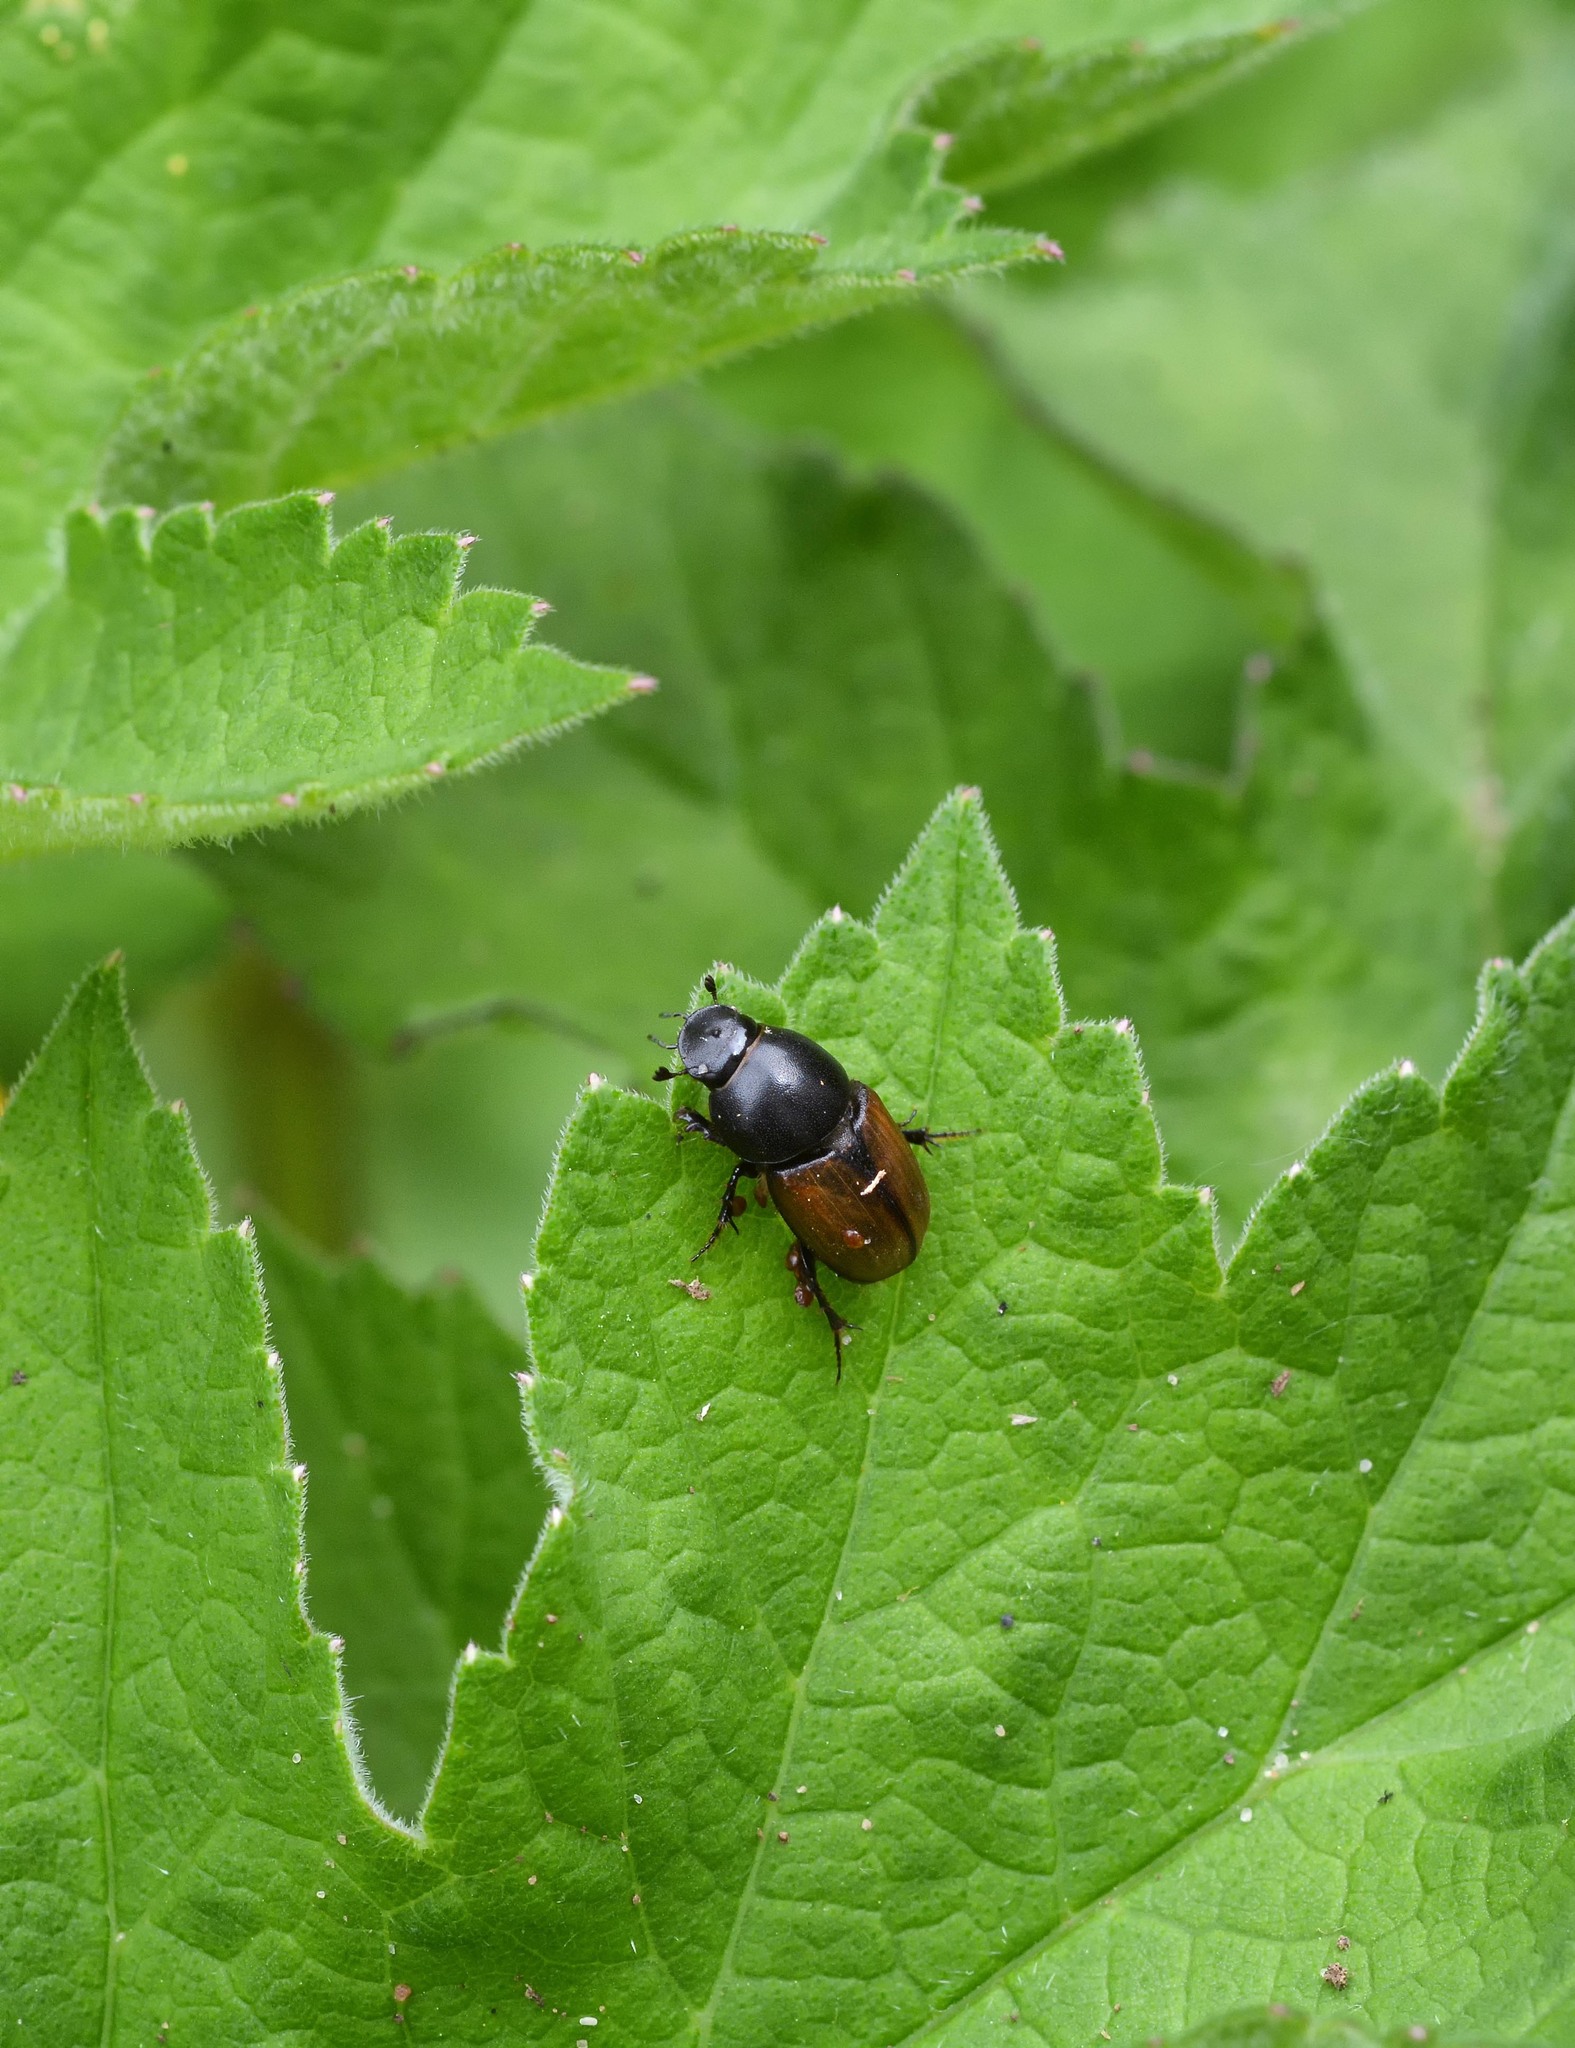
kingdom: Animalia
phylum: Arthropoda
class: Insecta
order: Coleoptera
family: Scarabaeidae
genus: Colobopterus
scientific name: Colobopterus erraticus
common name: Erratic small dung beetle
